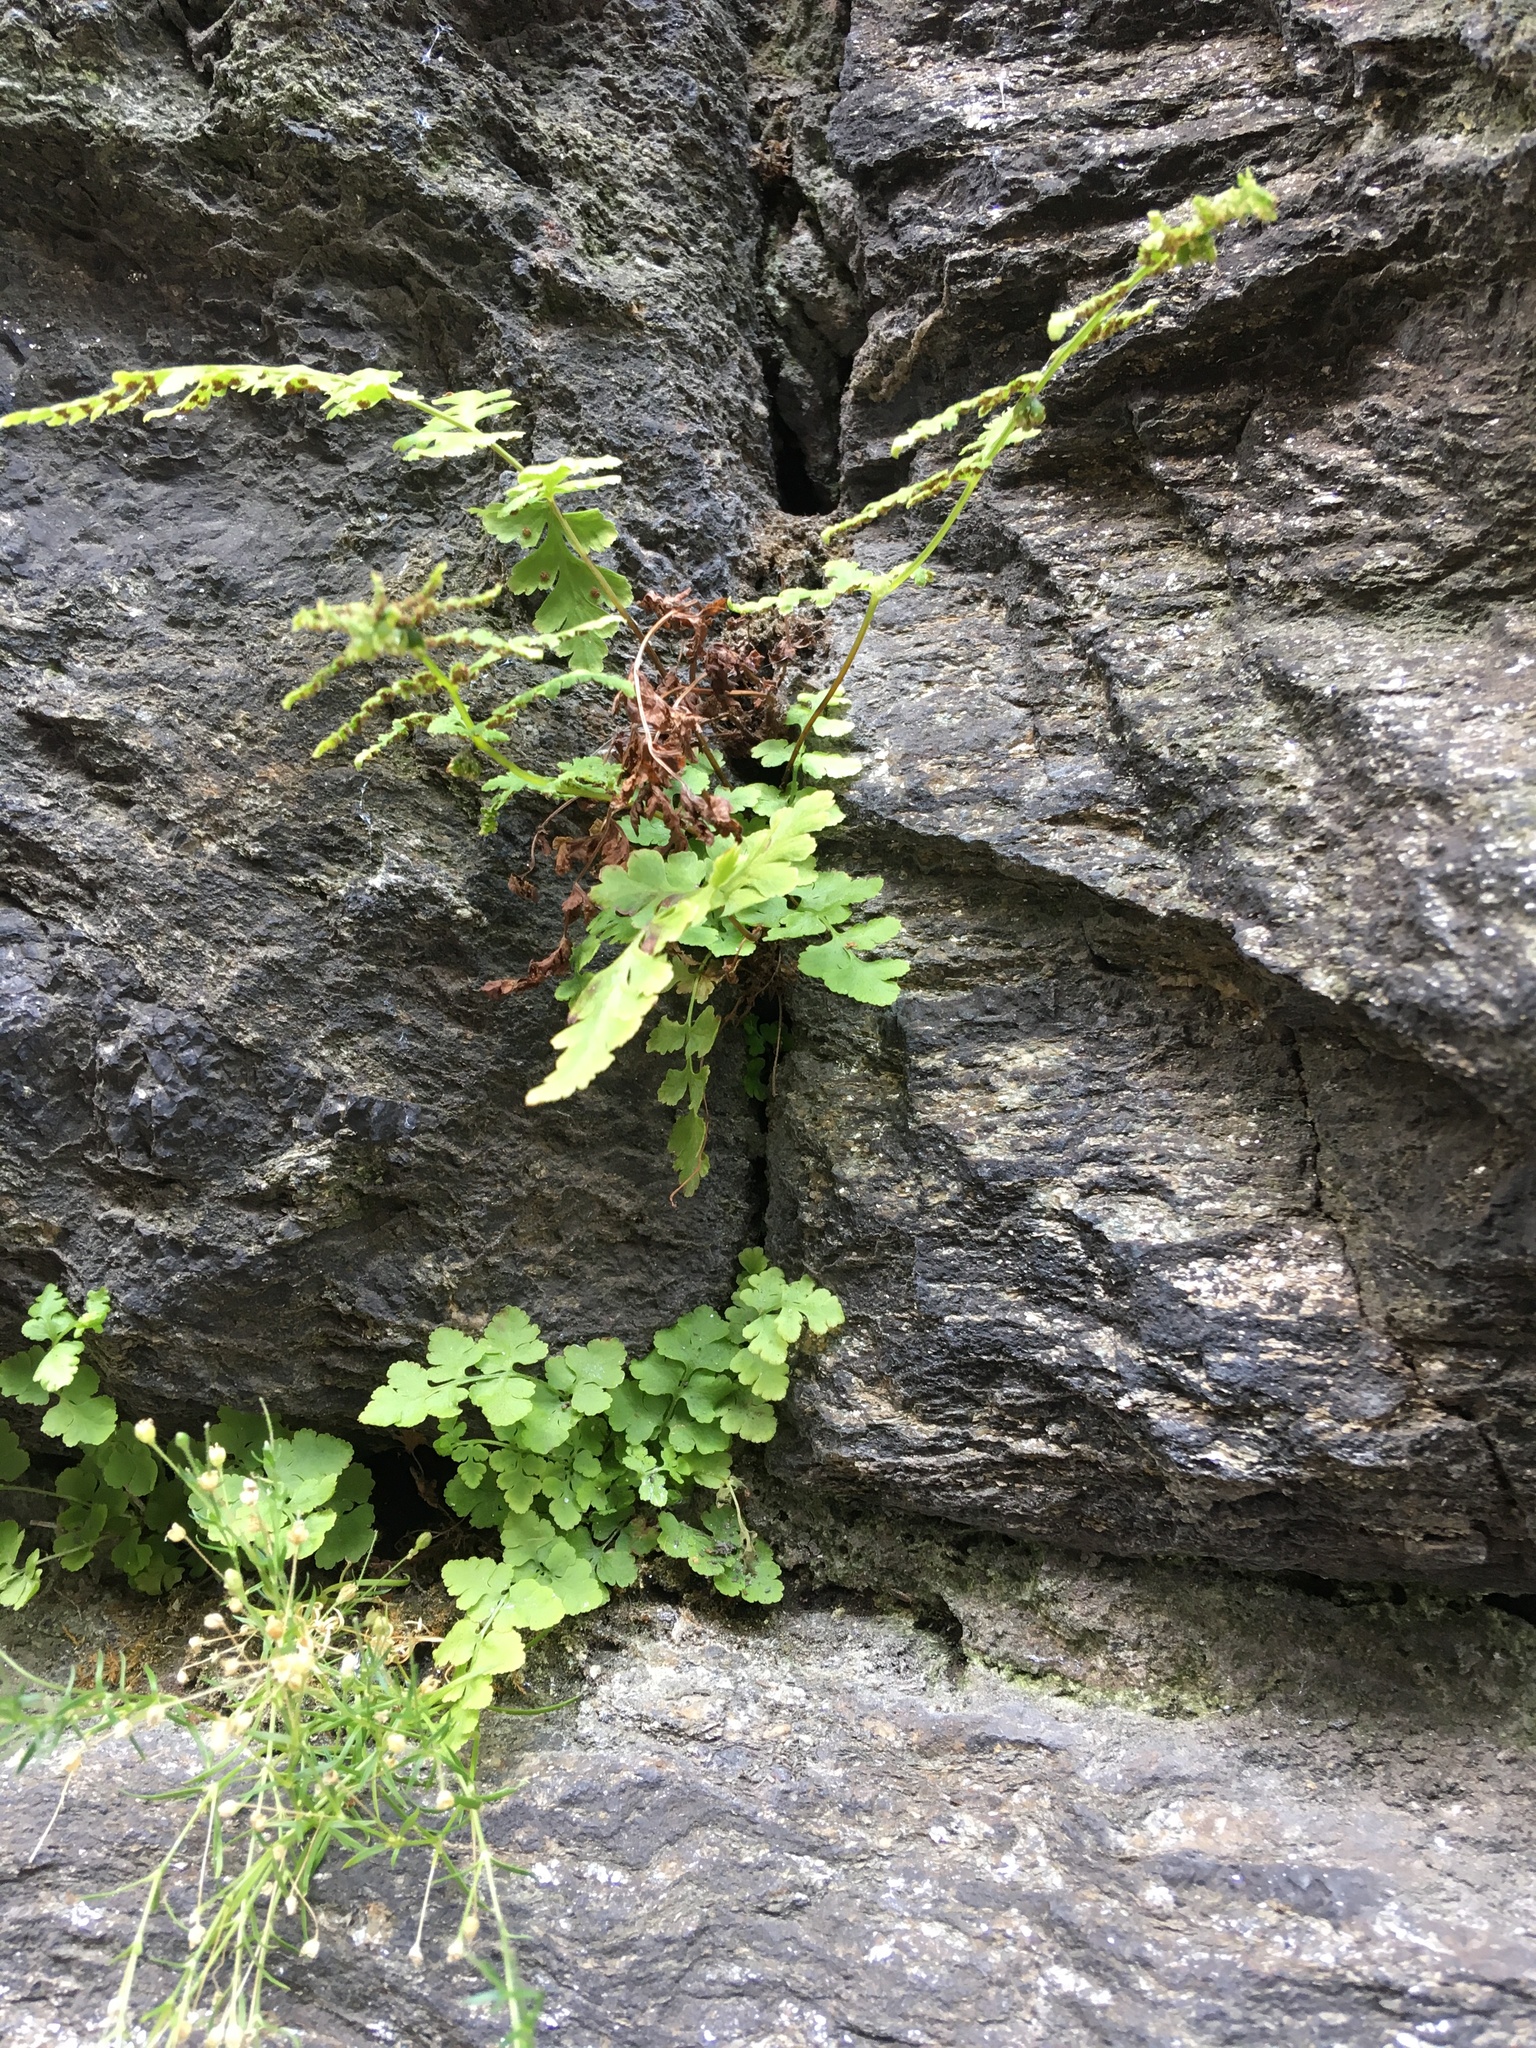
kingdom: Plantae
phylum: Tracheophyta
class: Polypodiopsida
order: Polypodiales
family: Woodsiaceae
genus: Physematium
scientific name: Physematium obtusum
